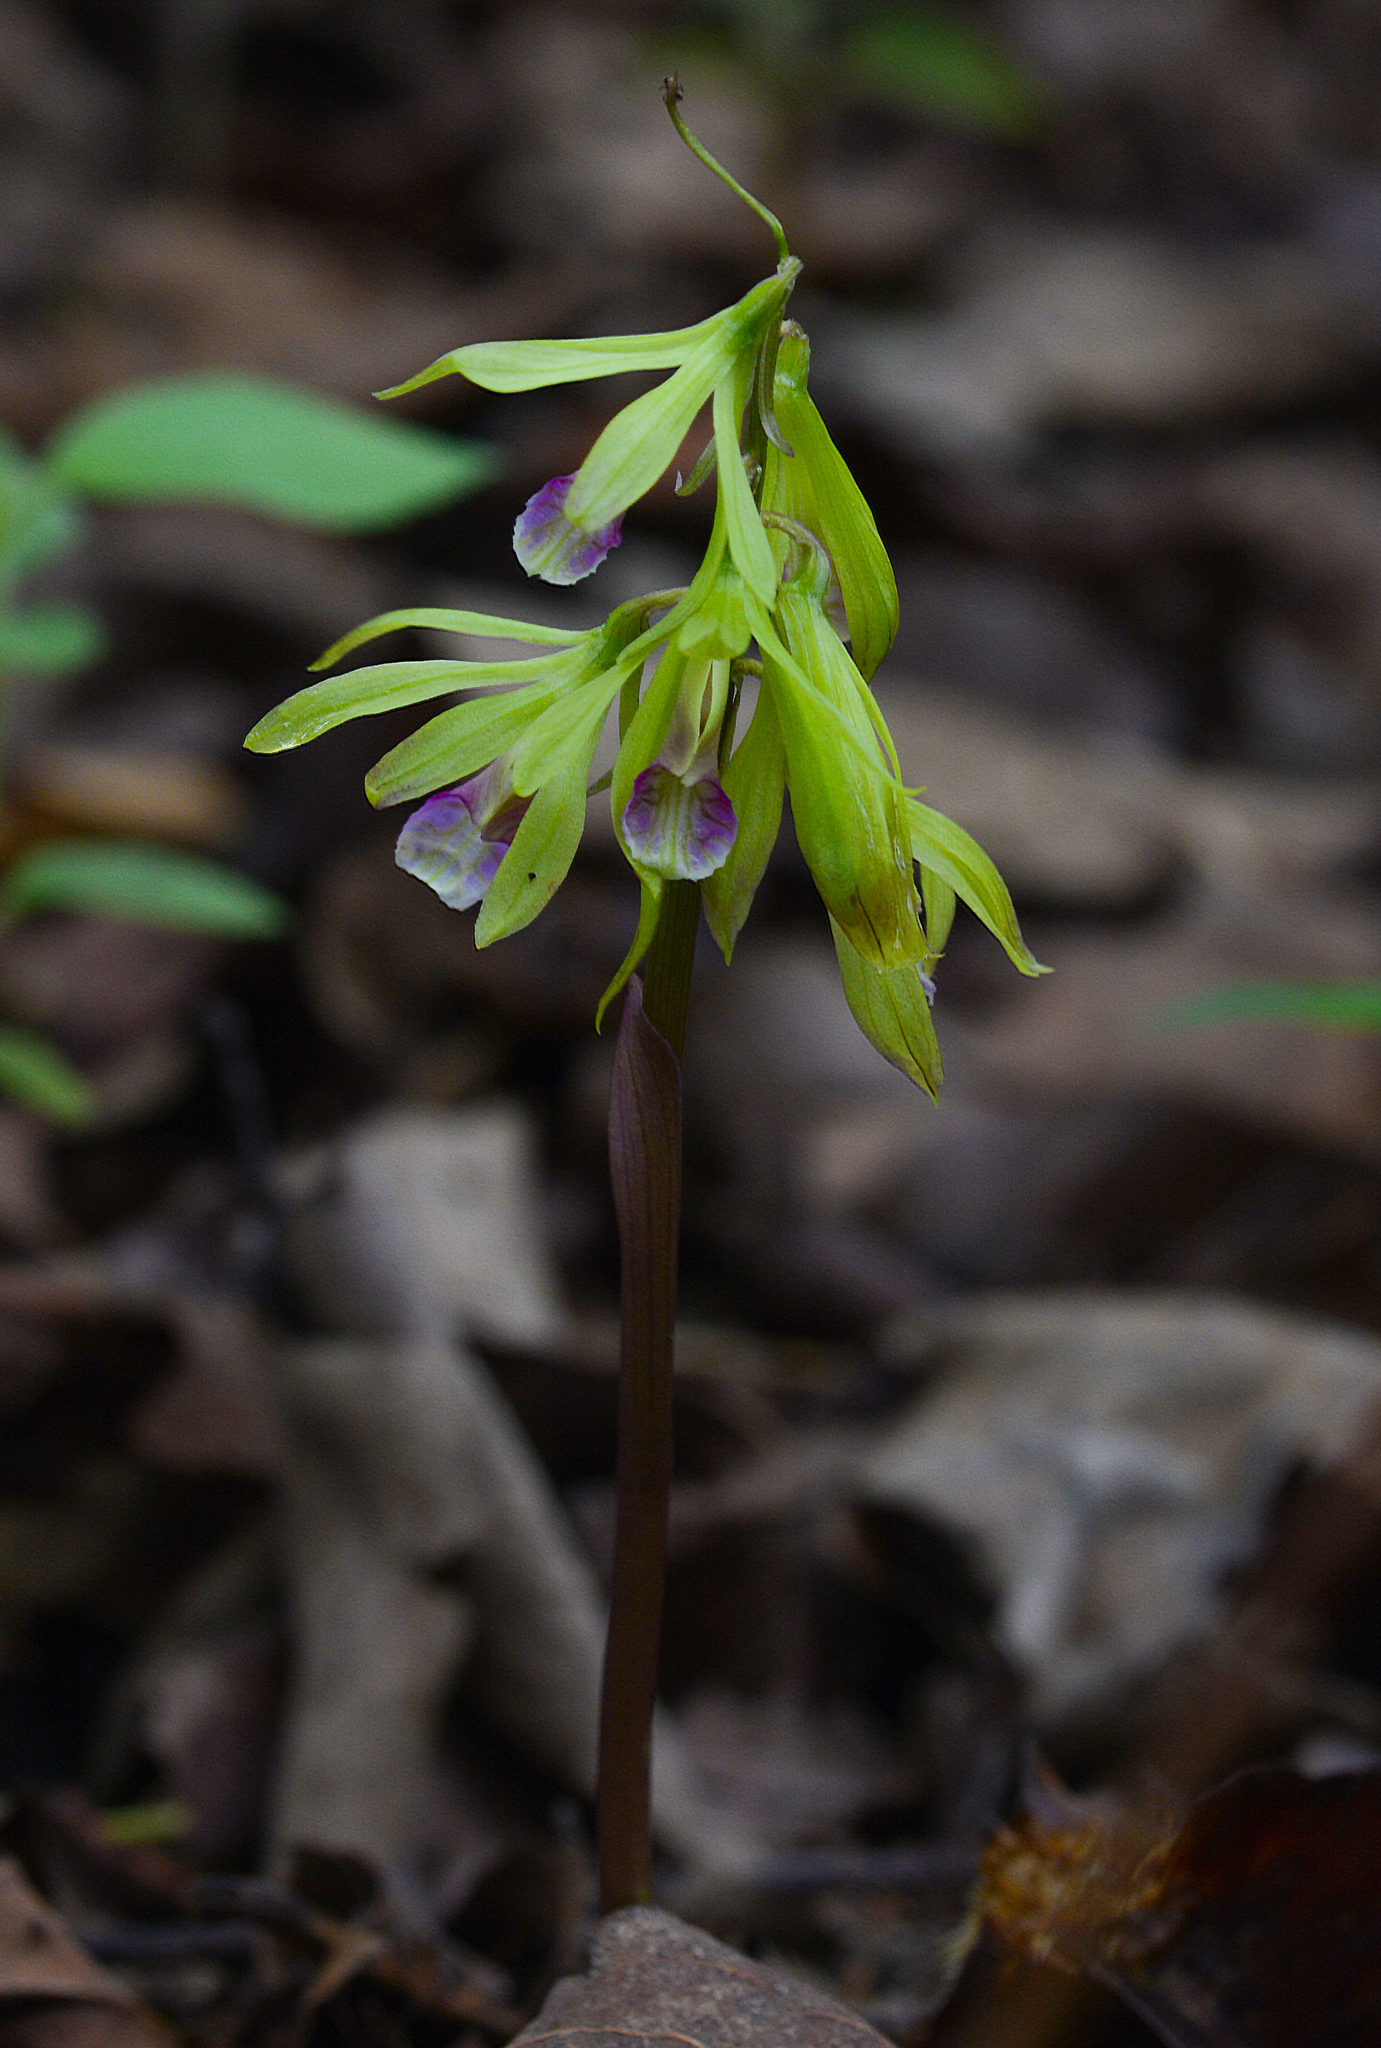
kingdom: Plantae
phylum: Tracheophyta
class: Liliopsida
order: Asparagales
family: Orchidaceae
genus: Nervilia
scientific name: Nervilia concolor
